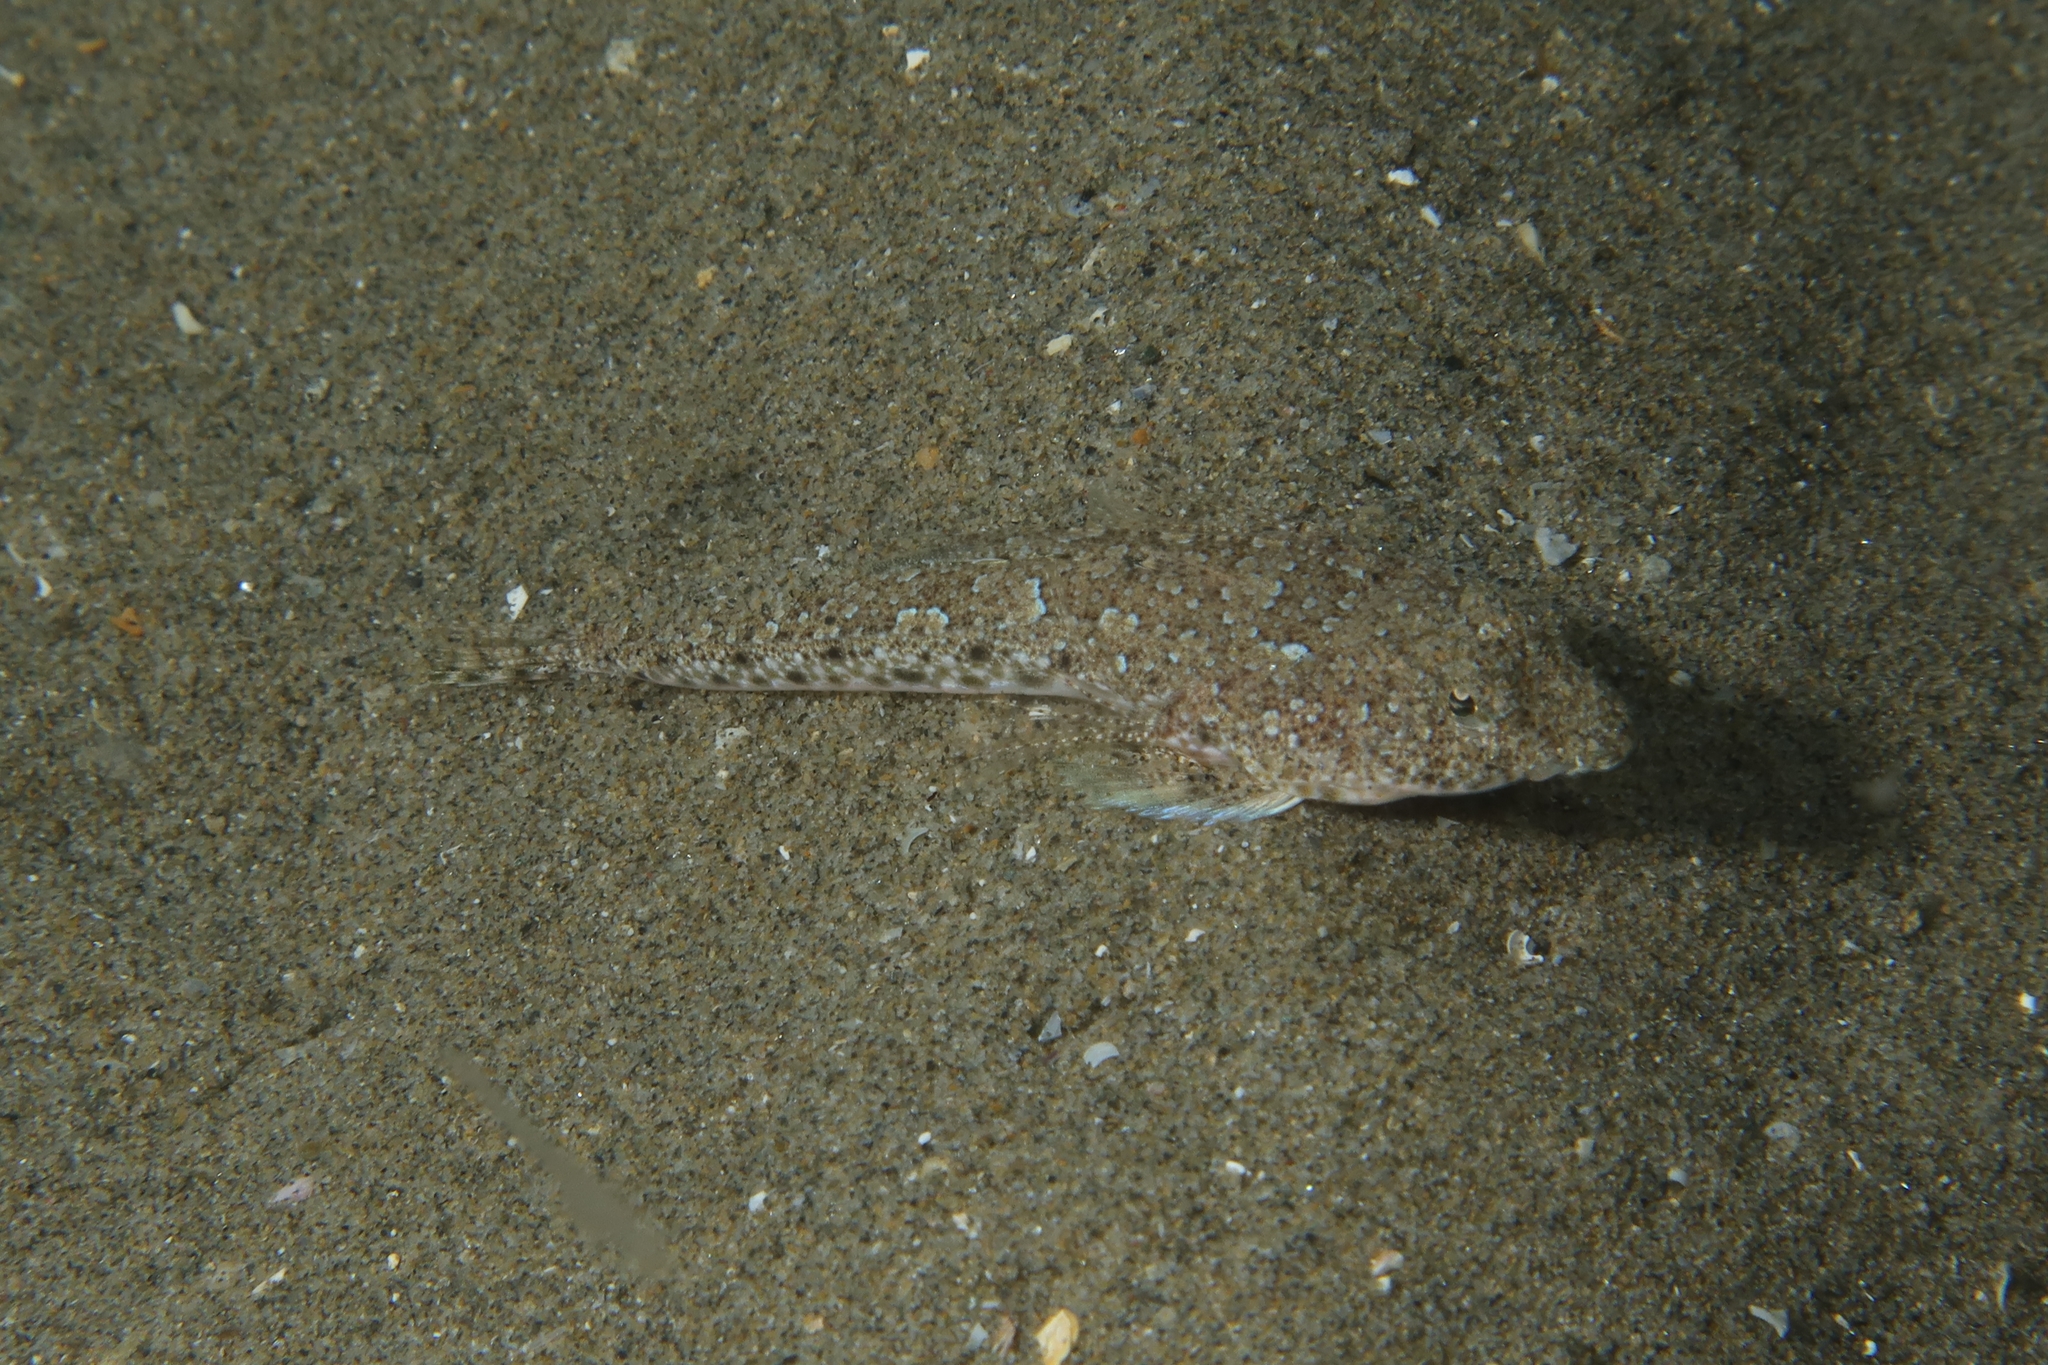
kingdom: Animalia
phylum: Chordata
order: Perciformes
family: Callionymidae
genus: Callionymus
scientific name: Callionymus risso
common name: Risso’s dragonet
